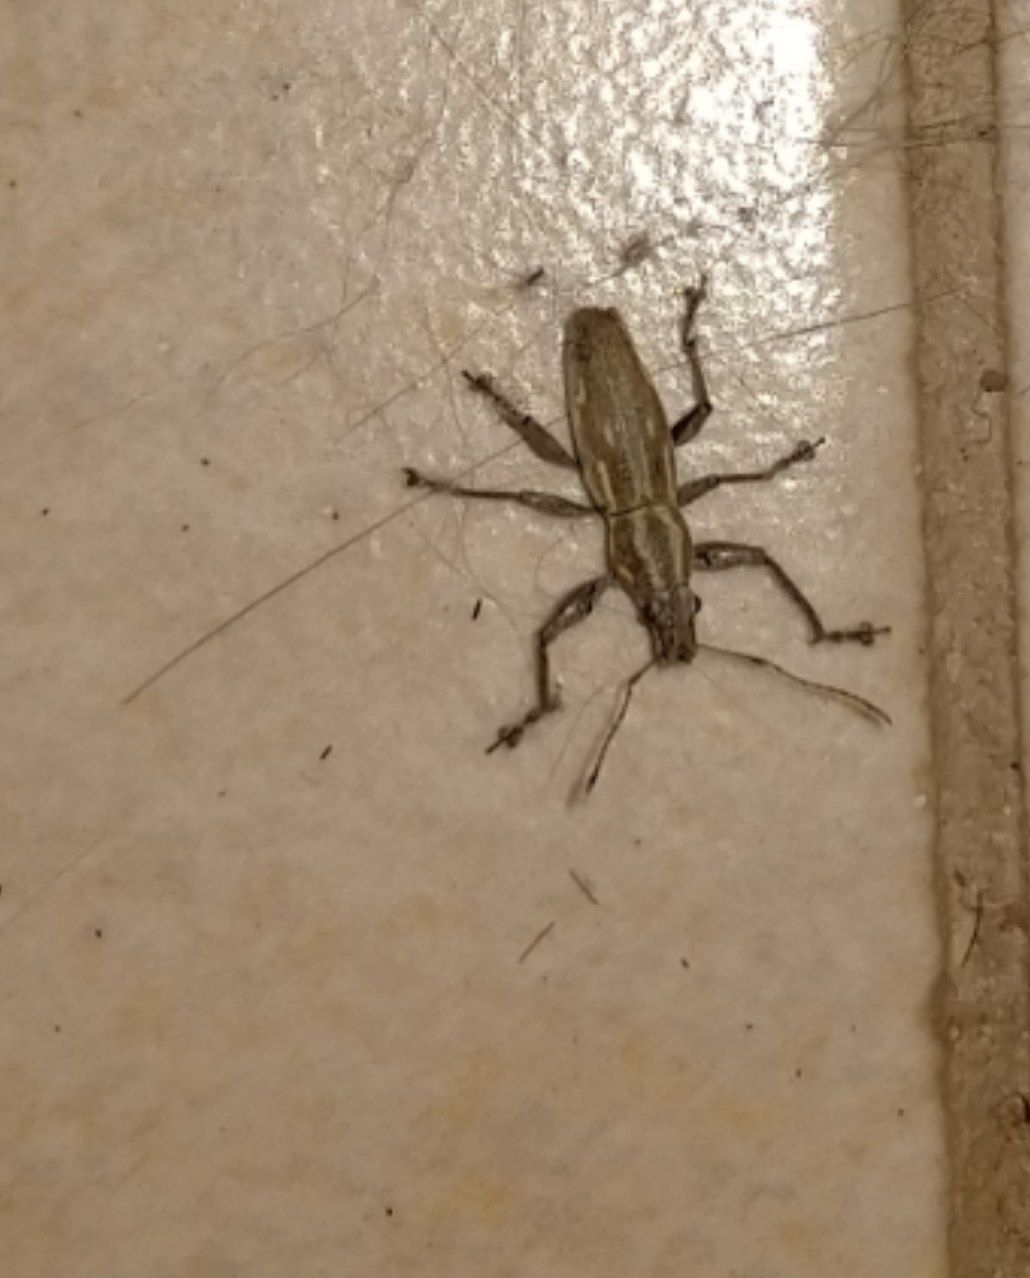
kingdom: Animalia
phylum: Arthropoda
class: Insecta
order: Coleoptera
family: Curculionidae
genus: Naupactus
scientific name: Naupactus xanthographus
